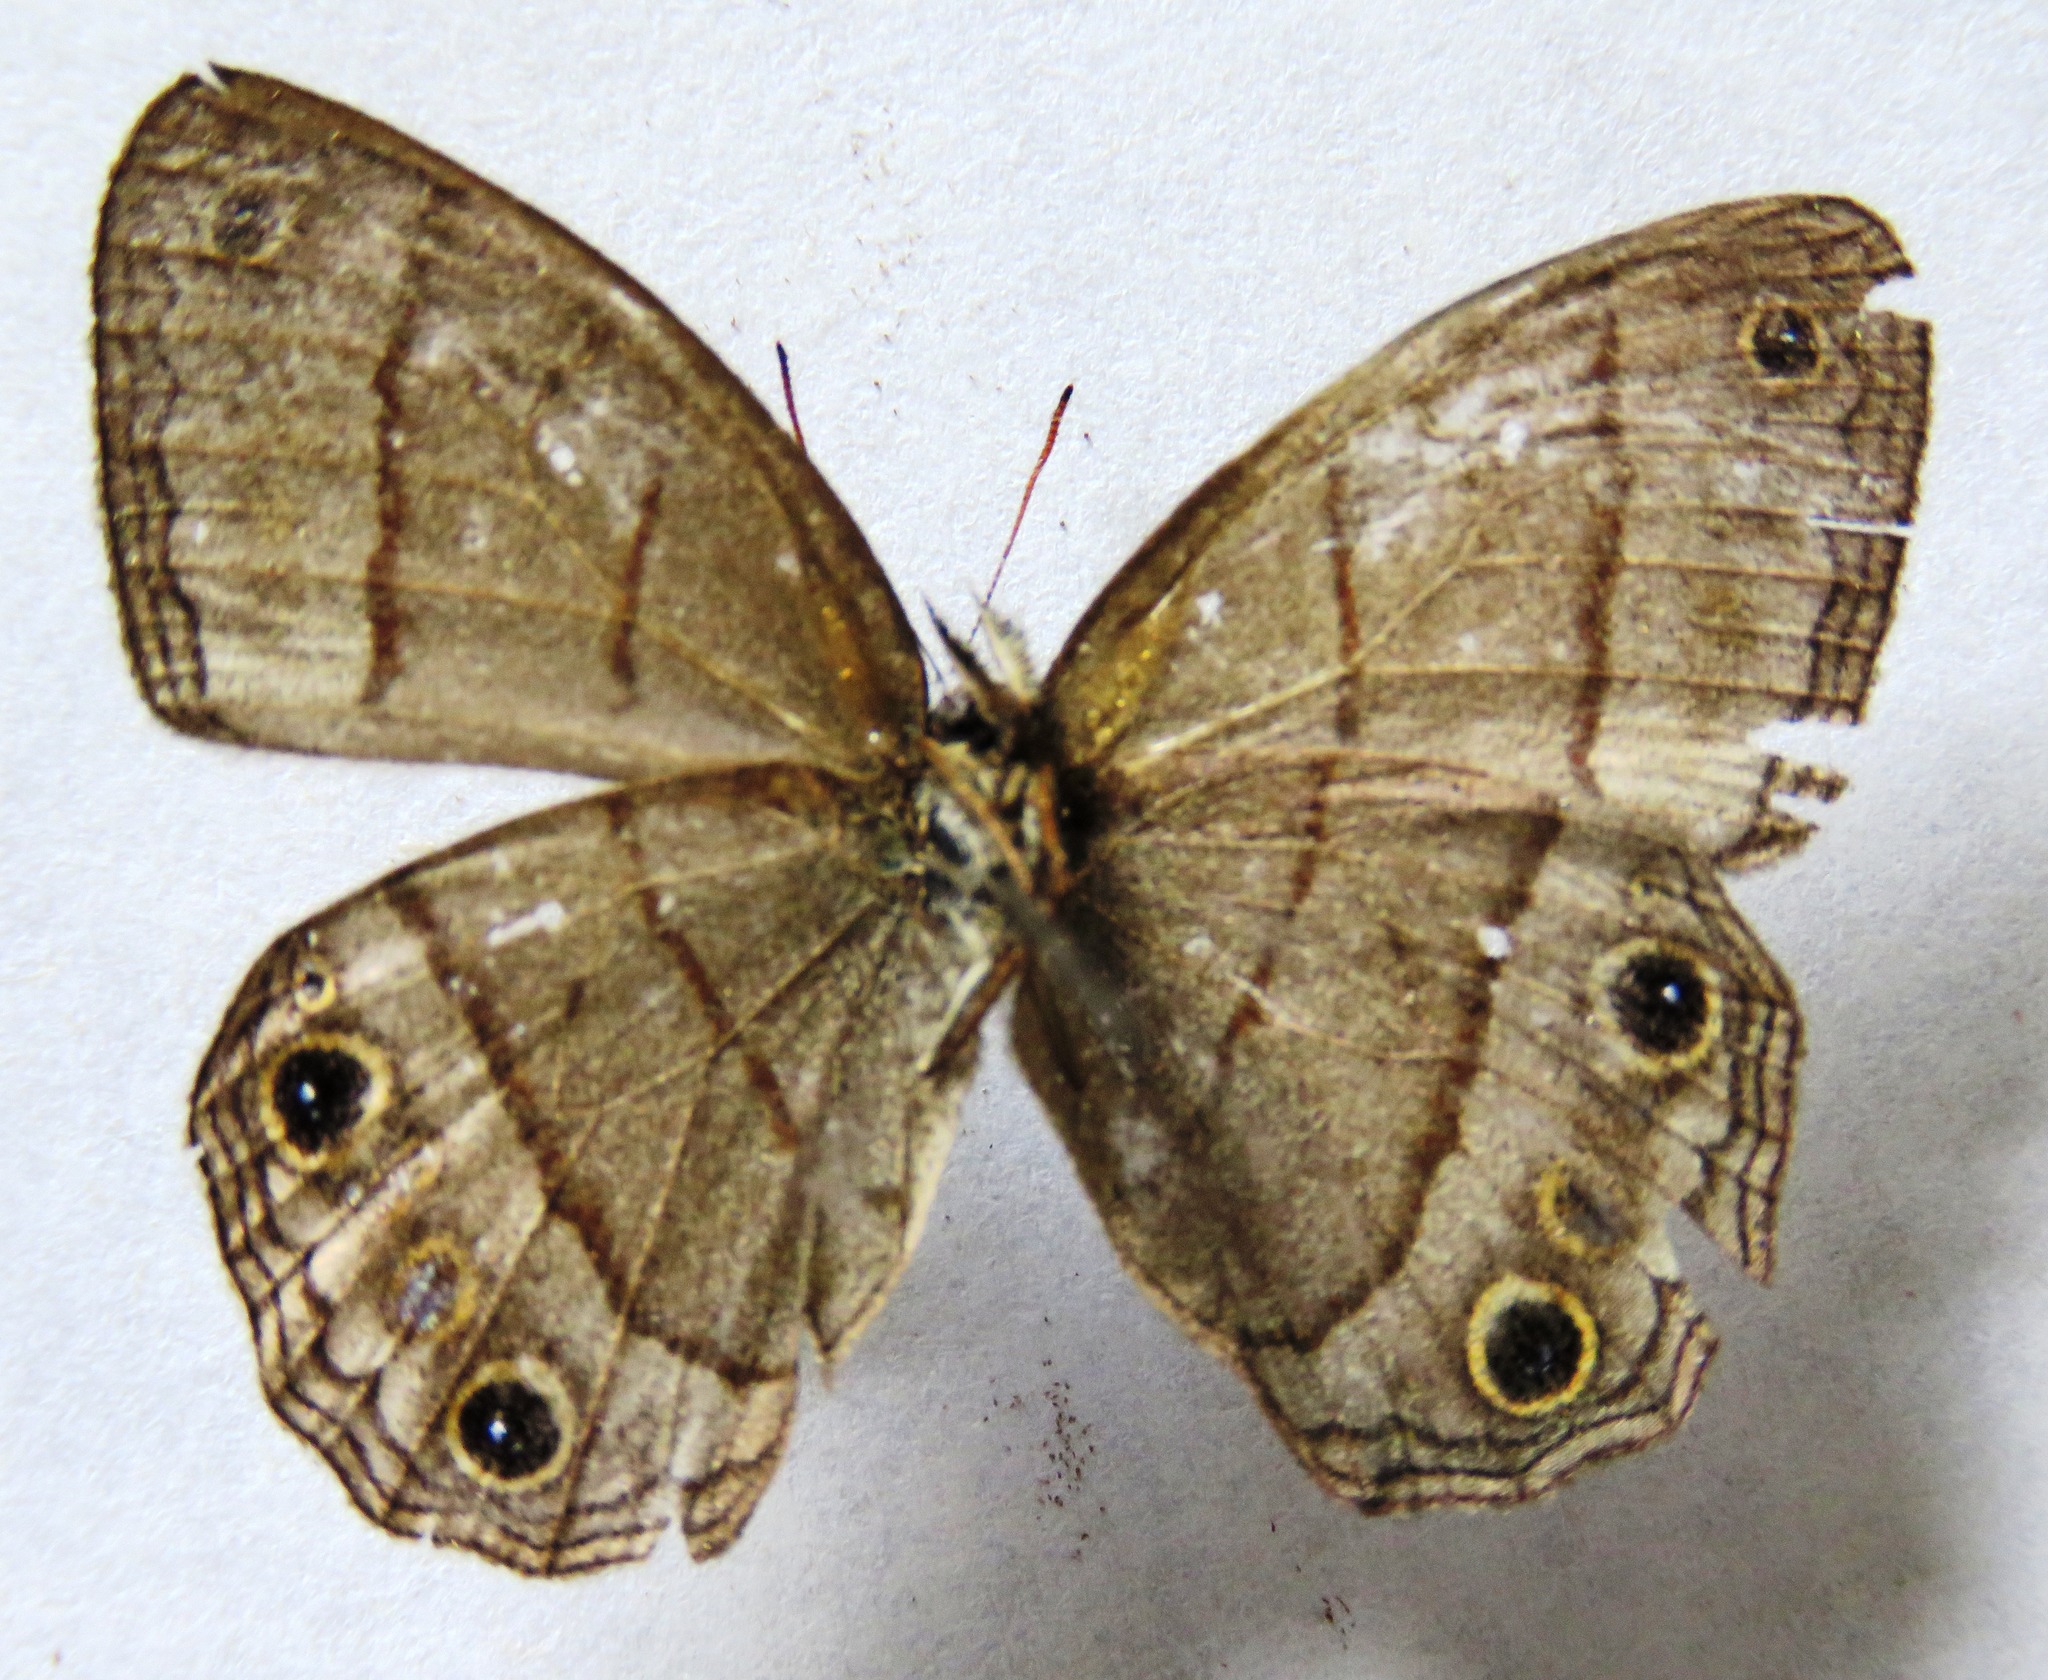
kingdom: Animalia
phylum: Arthropoda
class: Insecta
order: Lepidoptera
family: Nymphalidae
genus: Euptychia
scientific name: Euptychia Cissia pompilia
